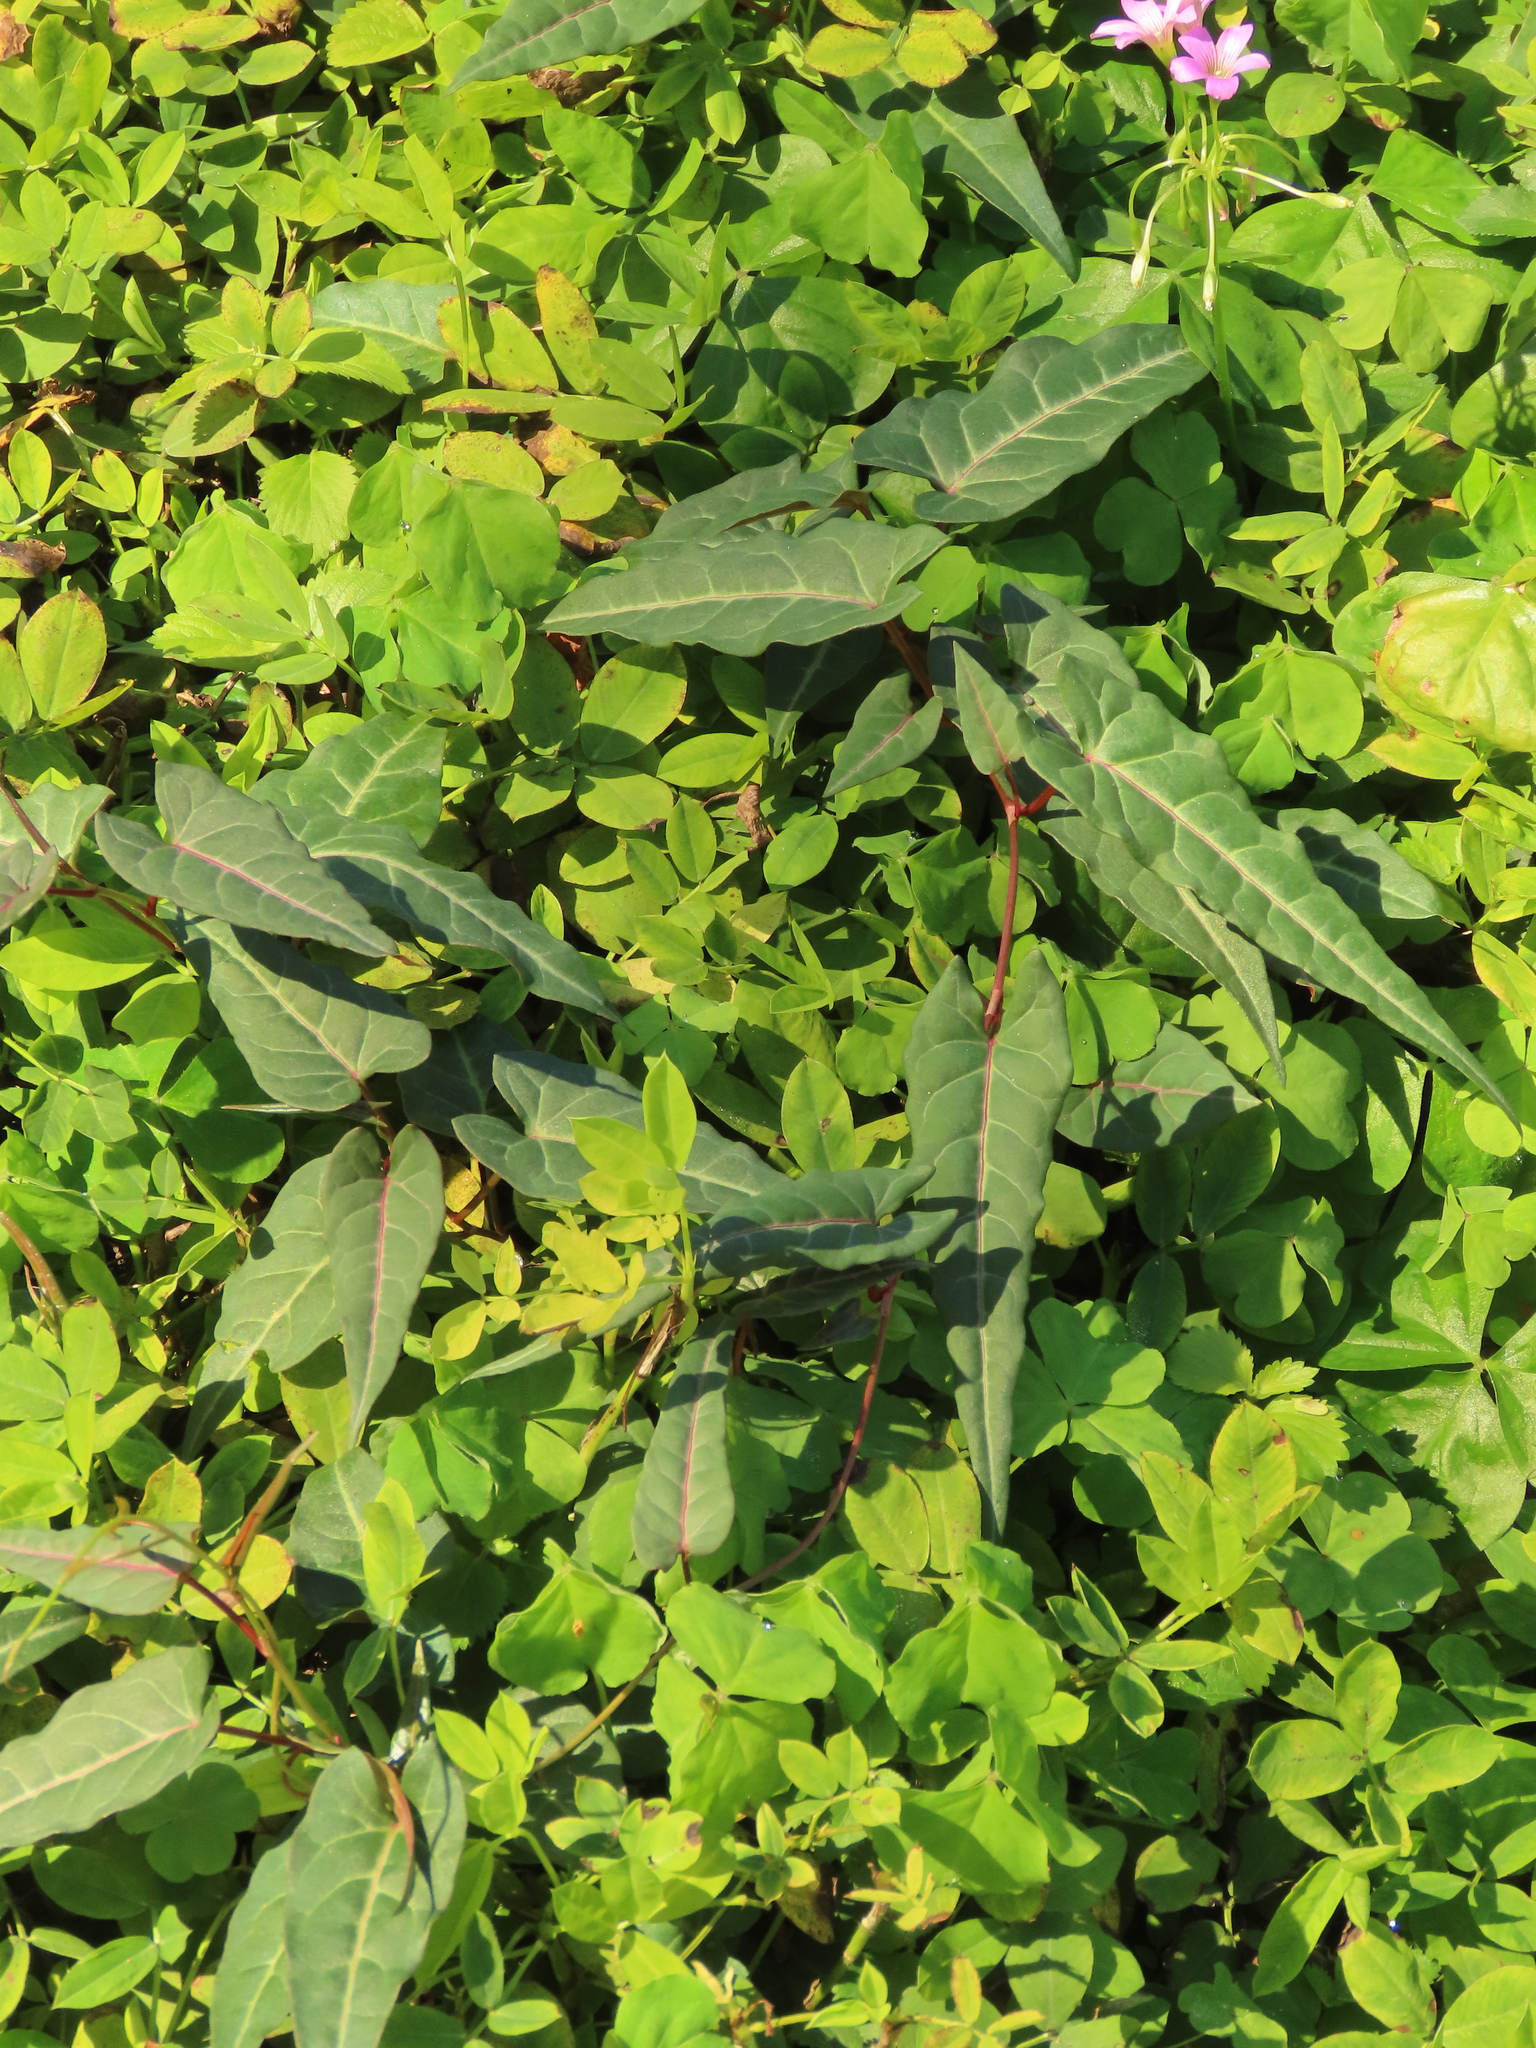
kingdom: Plantae
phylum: Tracheophyta
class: Magnoliopsida
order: Caryophyllales
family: Polygonaceae
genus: Reynoutria
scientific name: Reynoutria multiflora
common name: Chinese fleeceflower
